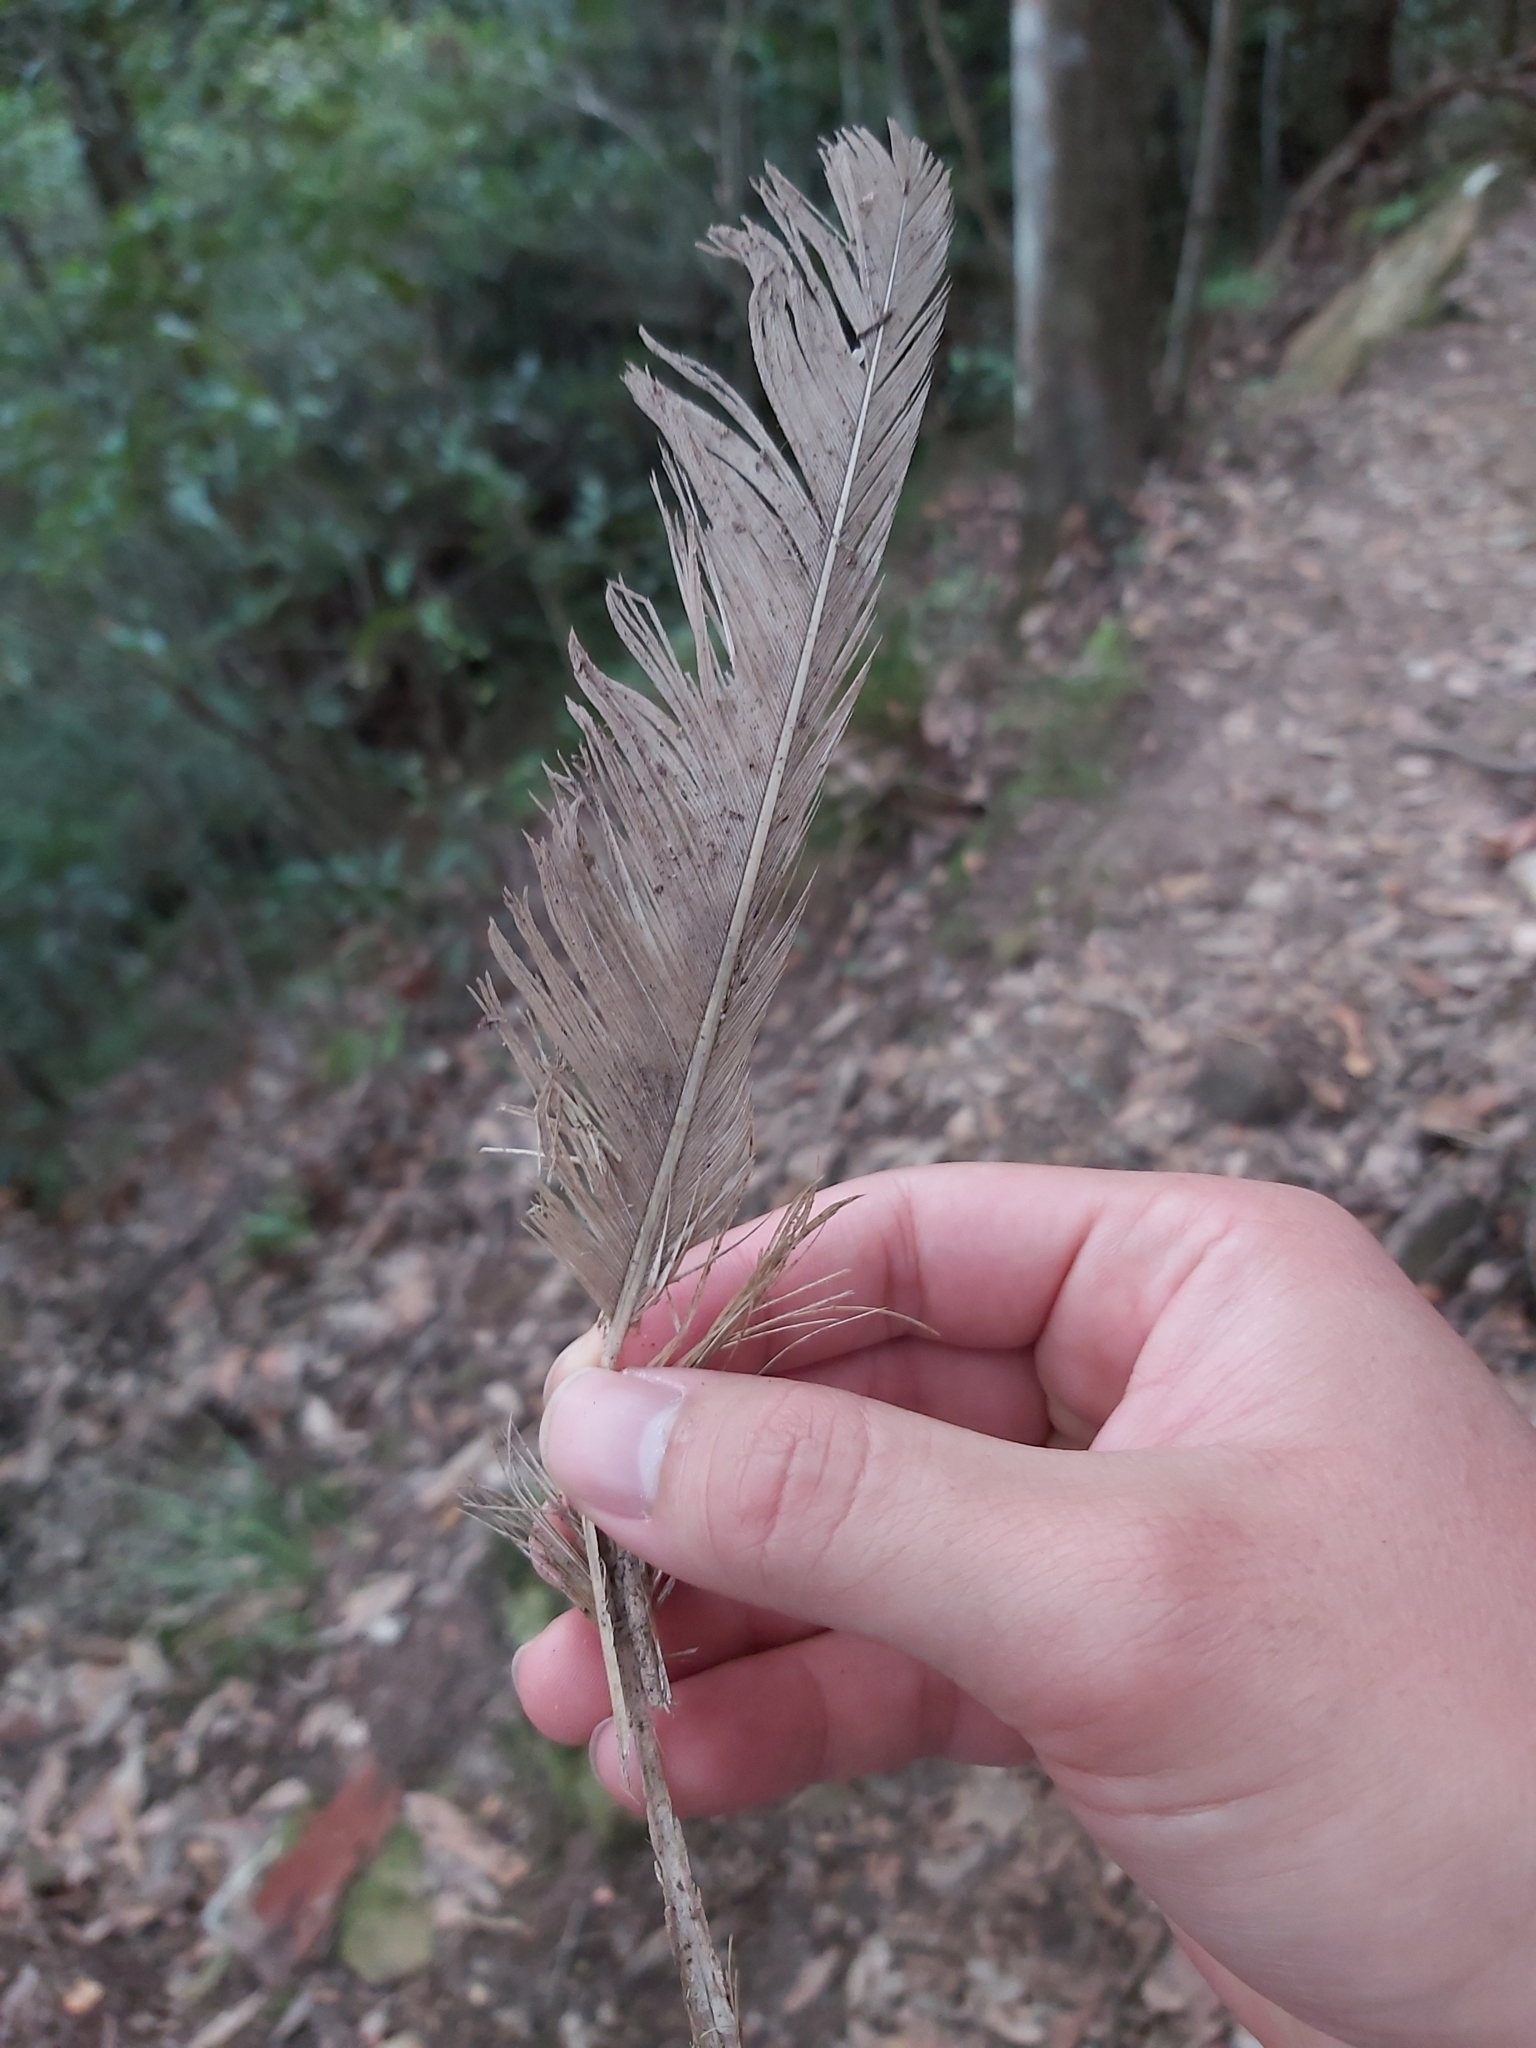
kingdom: Animalia
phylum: Chordata
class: Aves
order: Psittaciformes
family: Psittacidae
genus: Cacatua
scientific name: Cacatua galerita
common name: Sulphur-crested cockatoo
